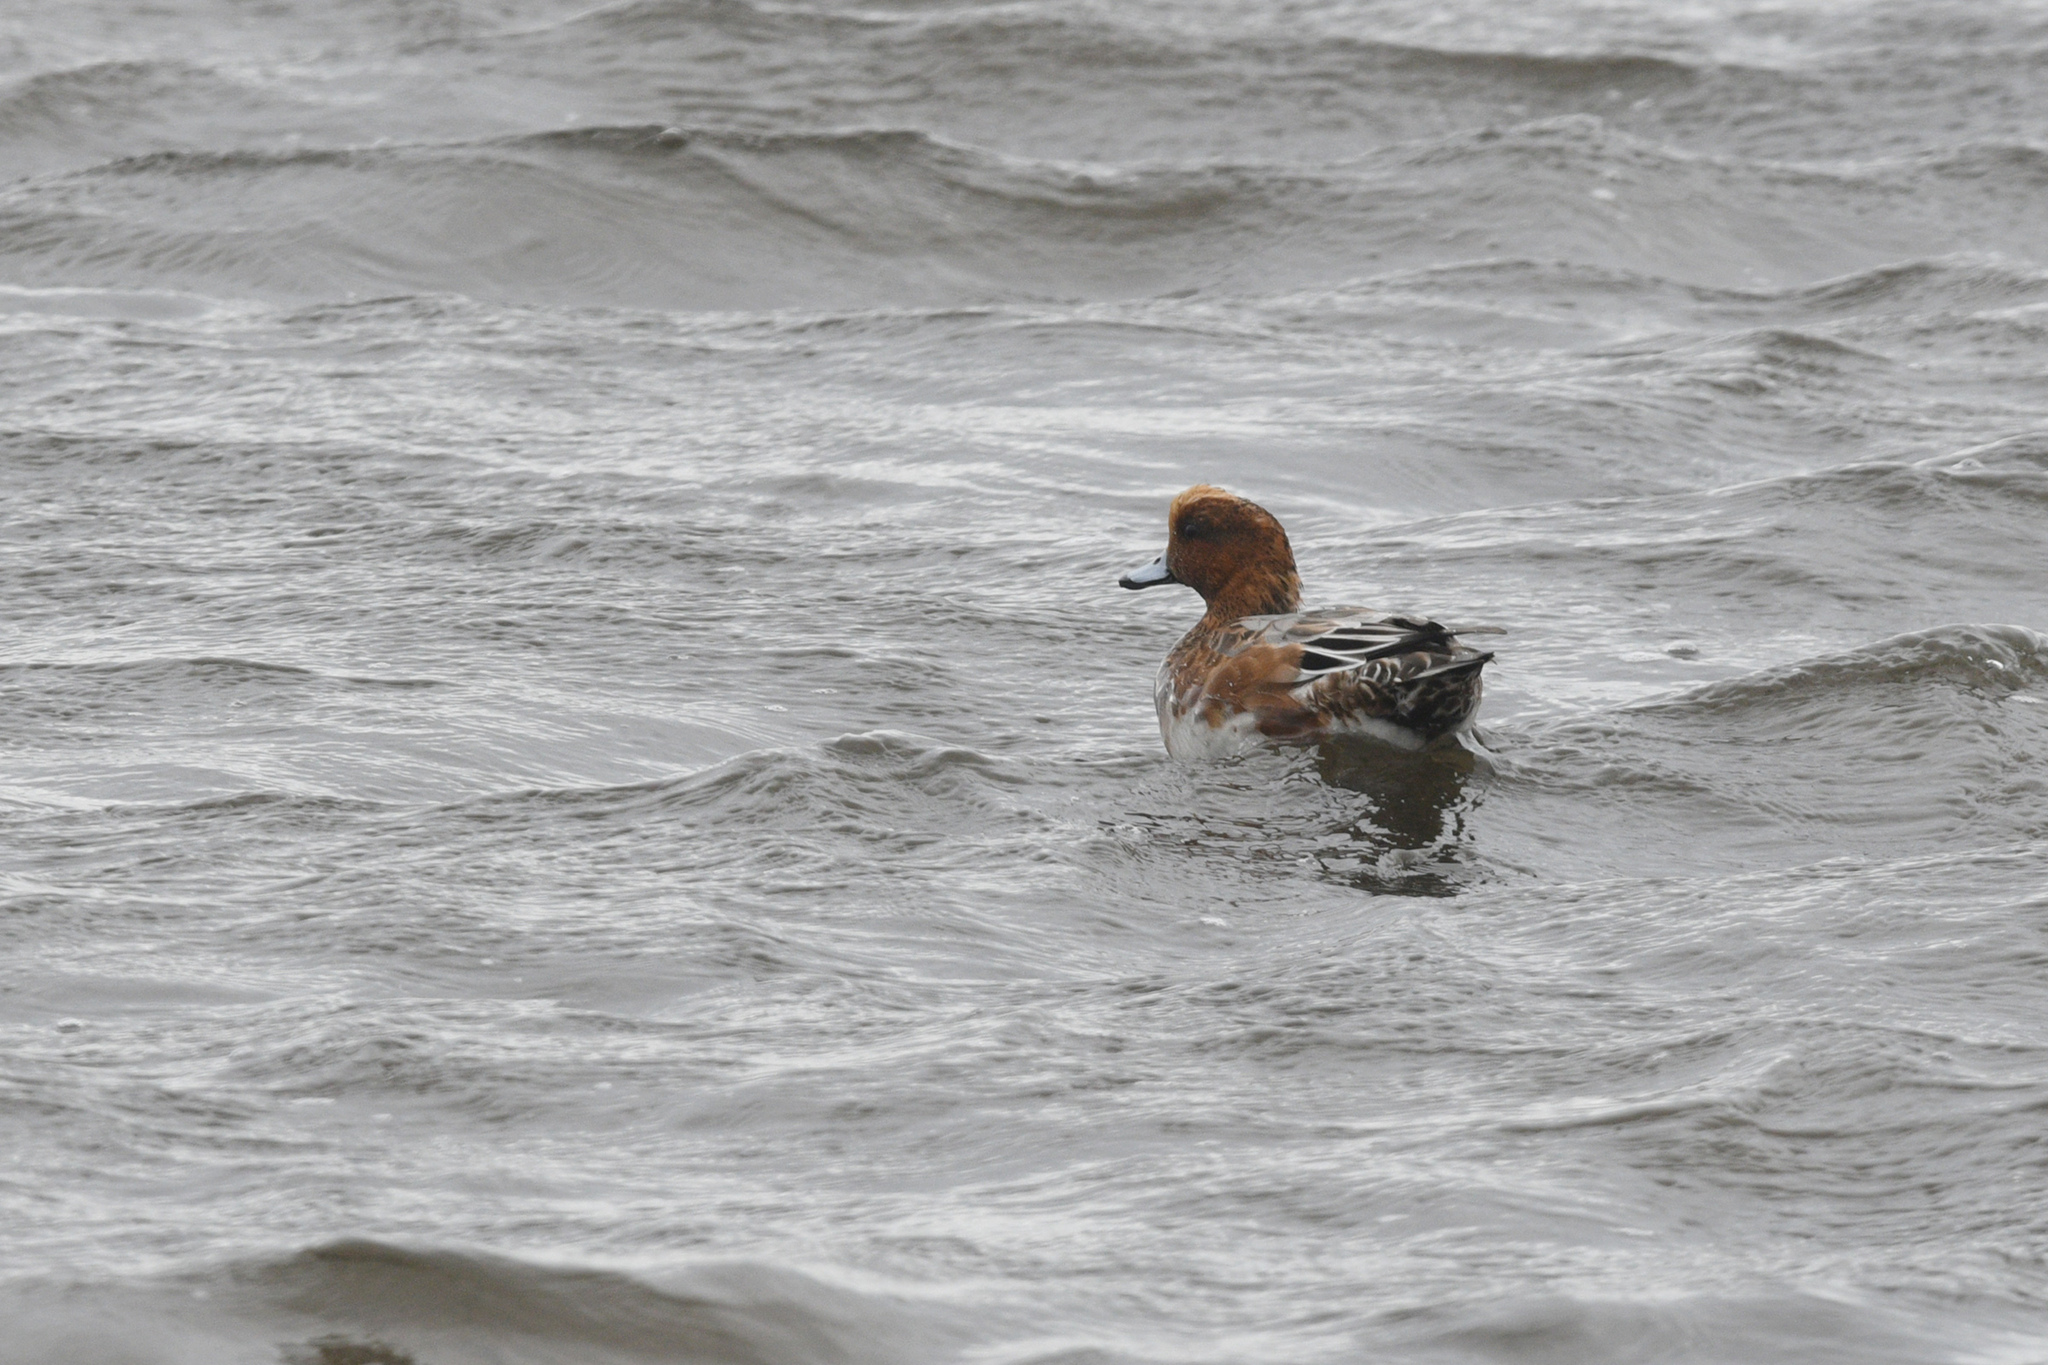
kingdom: Animalia
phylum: Chordata
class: Aves
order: Anseriformes
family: Anatidae
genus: Mareca
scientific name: Mareca penelope
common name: Eurasian wigeon
